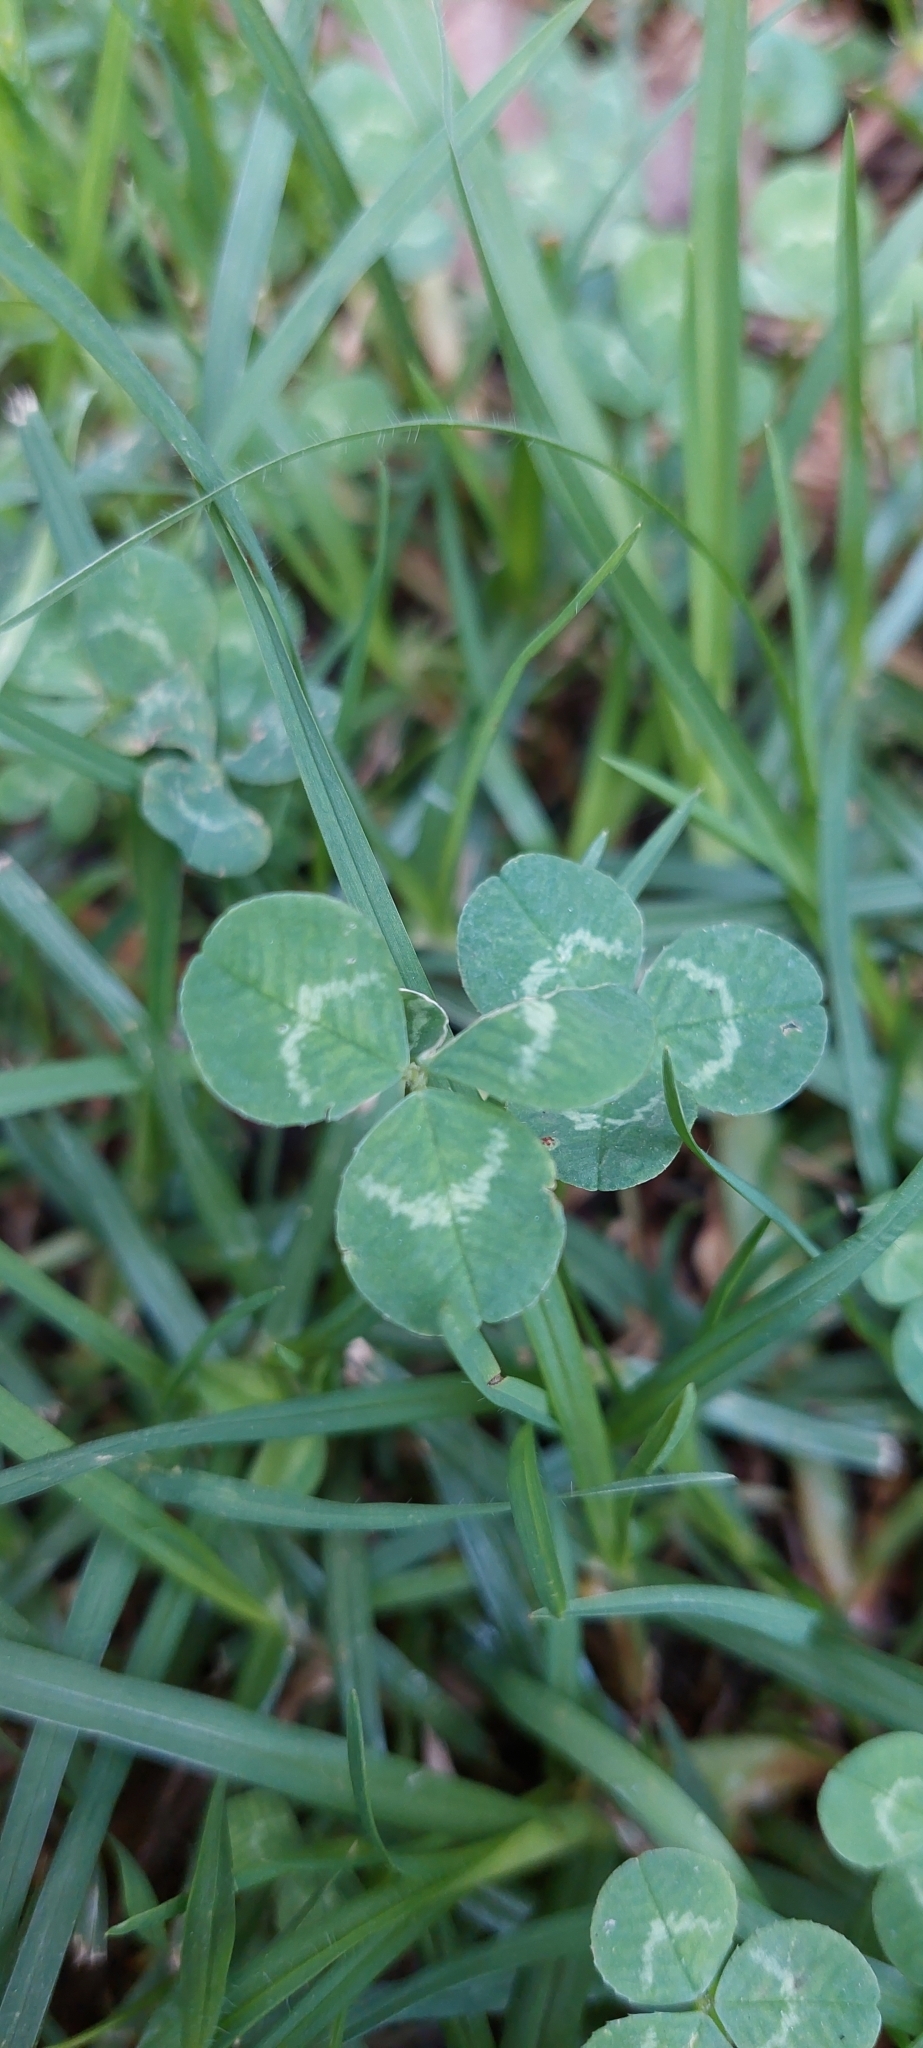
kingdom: Plantae
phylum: Tracheophyta
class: Magnoliopsida
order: Fabales
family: Fabaceae
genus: Trifolium
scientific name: Trifolium repens
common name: White clover
